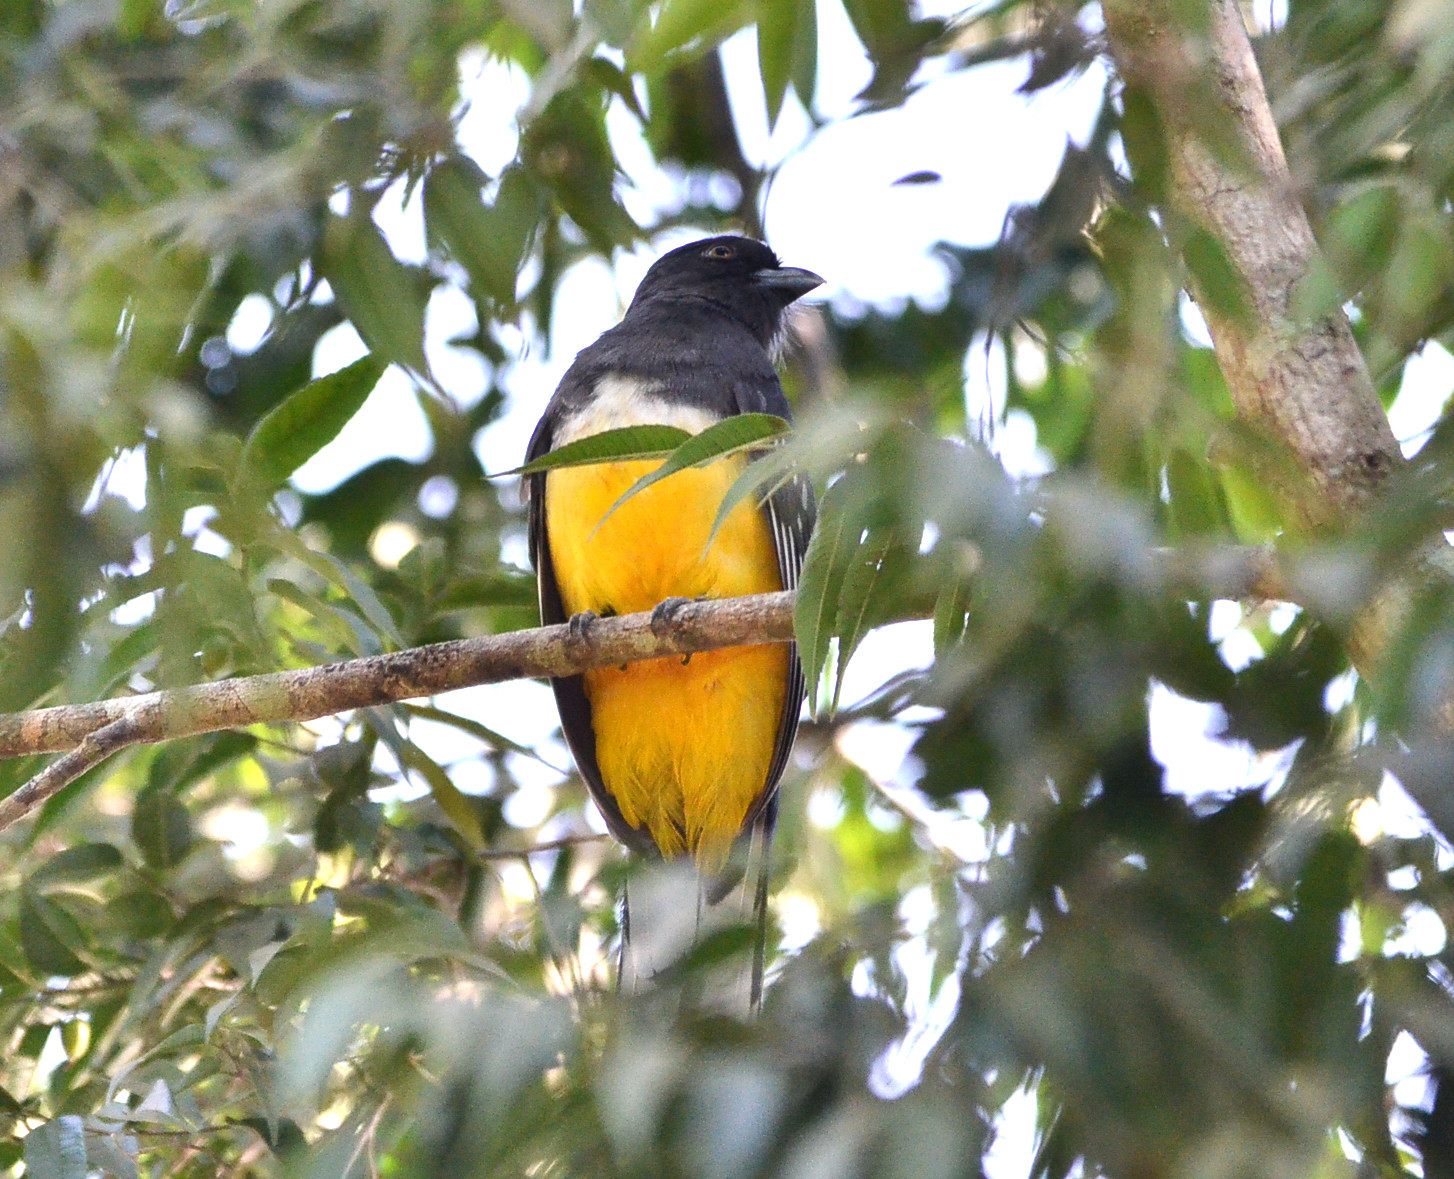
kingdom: Animalia
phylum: Chordata
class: Aves
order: Trogoniformes
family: Trogonidae
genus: Trogon
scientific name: Trogon citreolus
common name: Citreoline trogon
